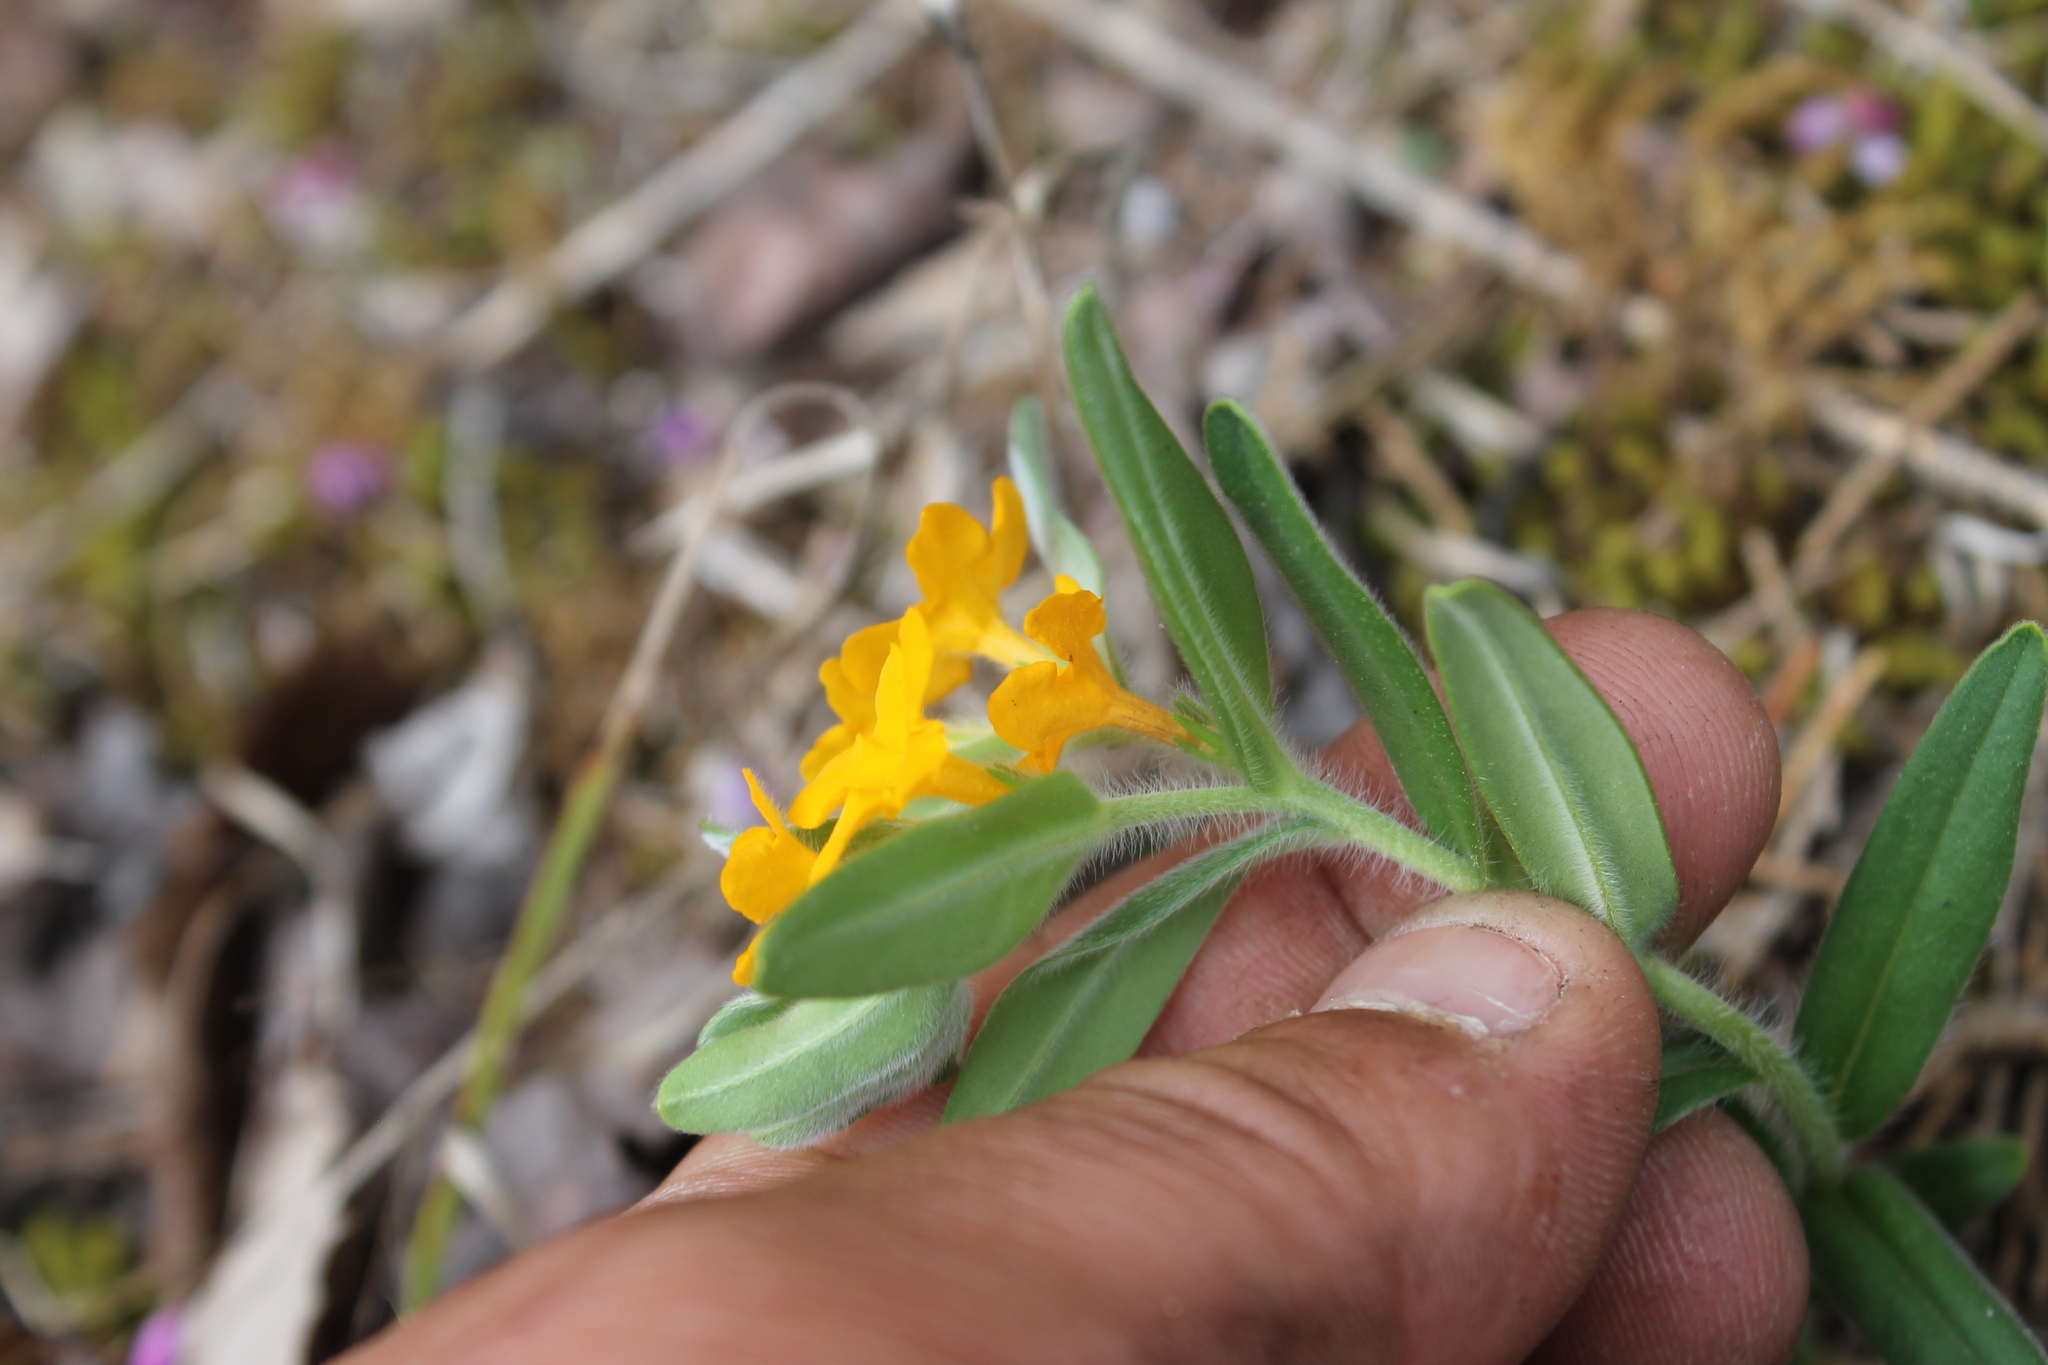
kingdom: Plantae
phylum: Tracheophyta
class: Magnoliopsida
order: Boraginales
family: Boraginaceae
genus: Lithospermum
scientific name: Lithospermum canescens
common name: Hoary puccoon
